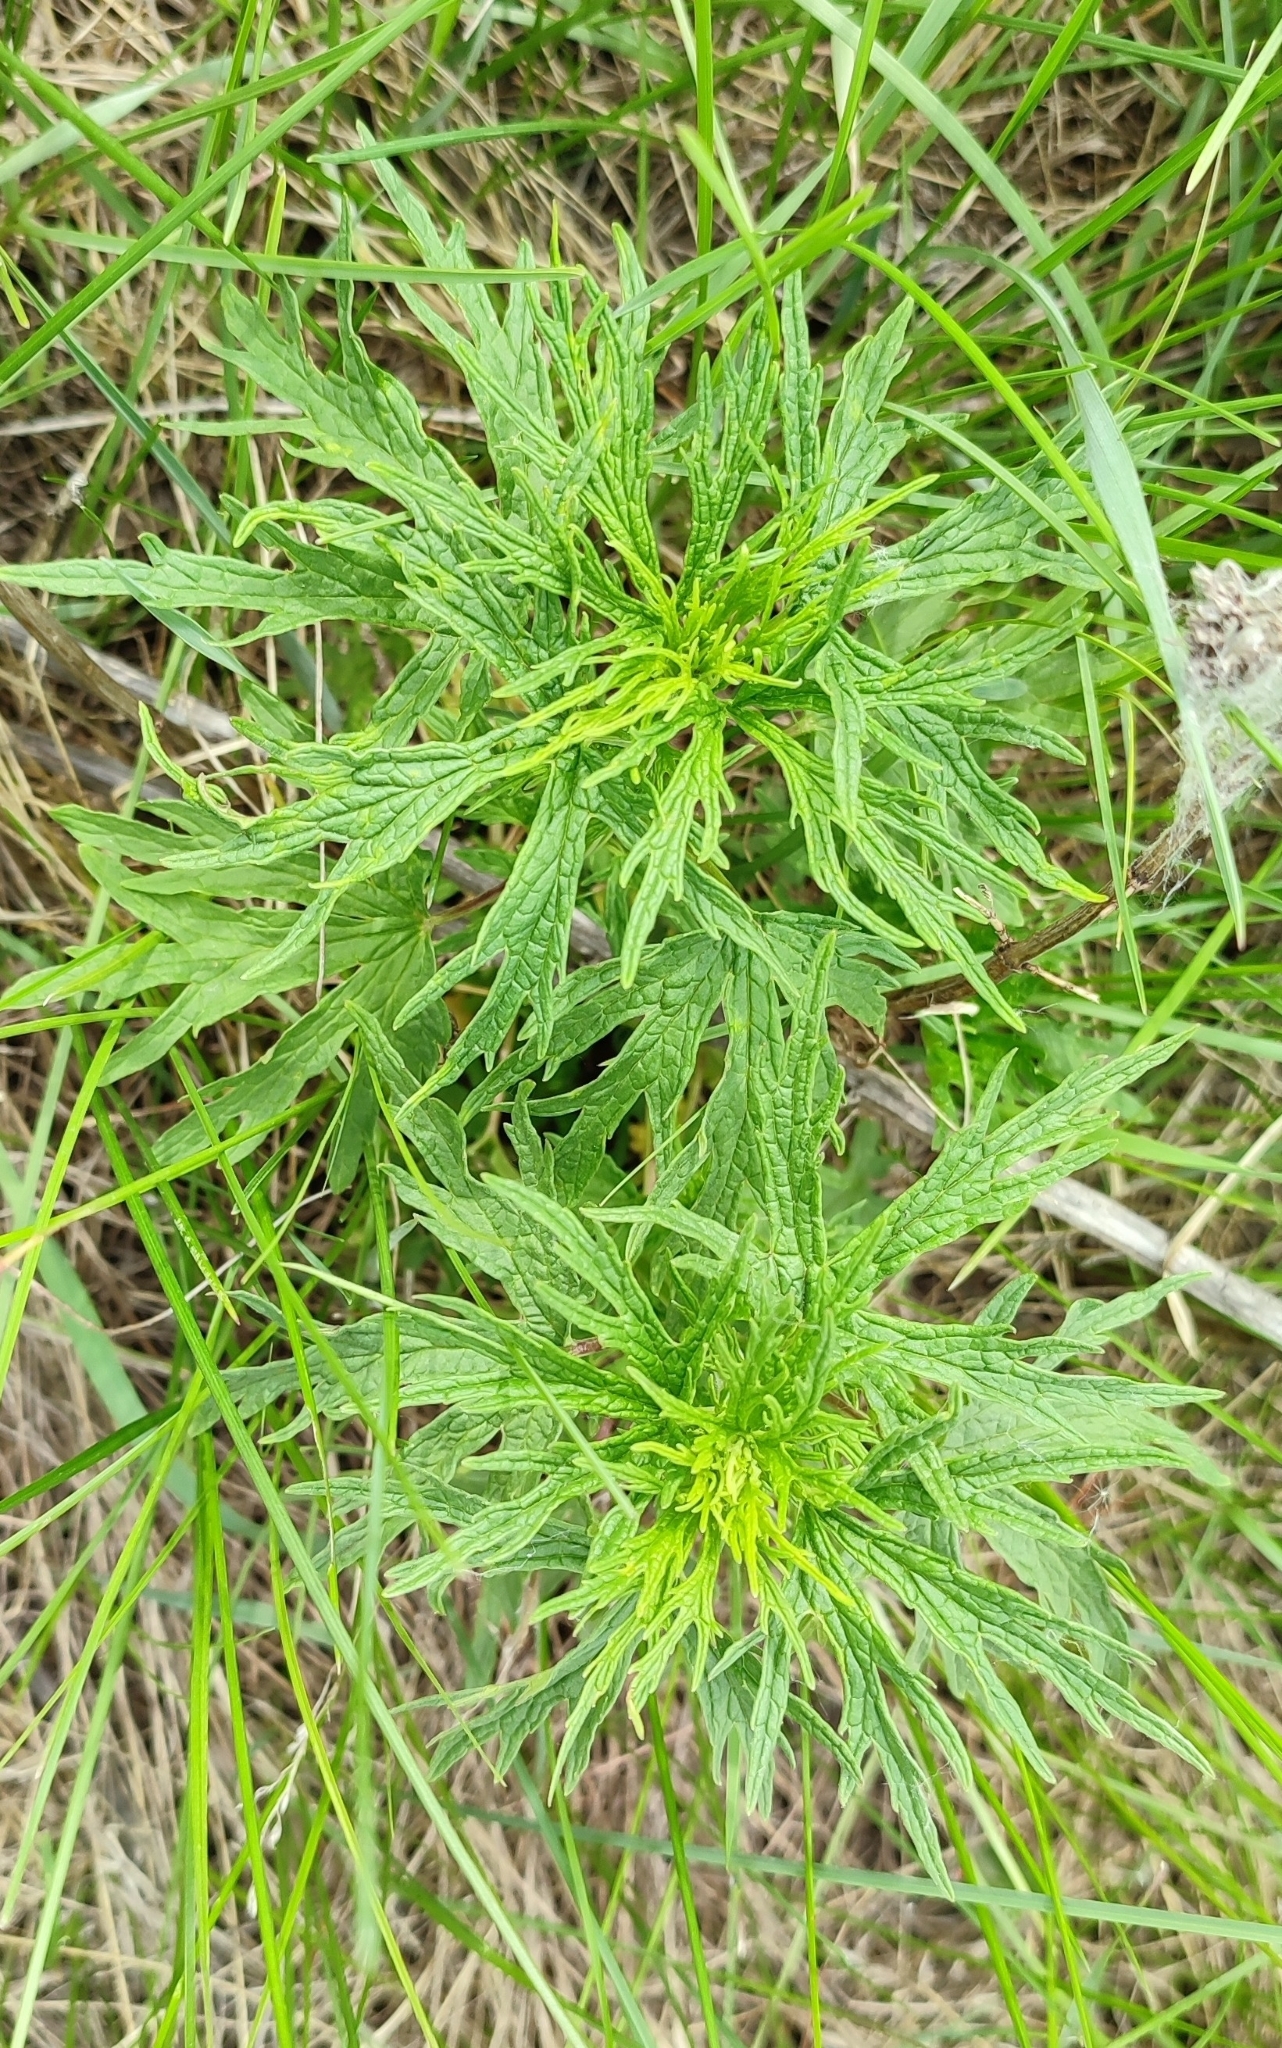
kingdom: Plantae
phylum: Tracheophyta
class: Magnoliopsida
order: Lamiales
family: Lamiaceae
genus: Leonurus
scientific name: Leonurus glaucescens
